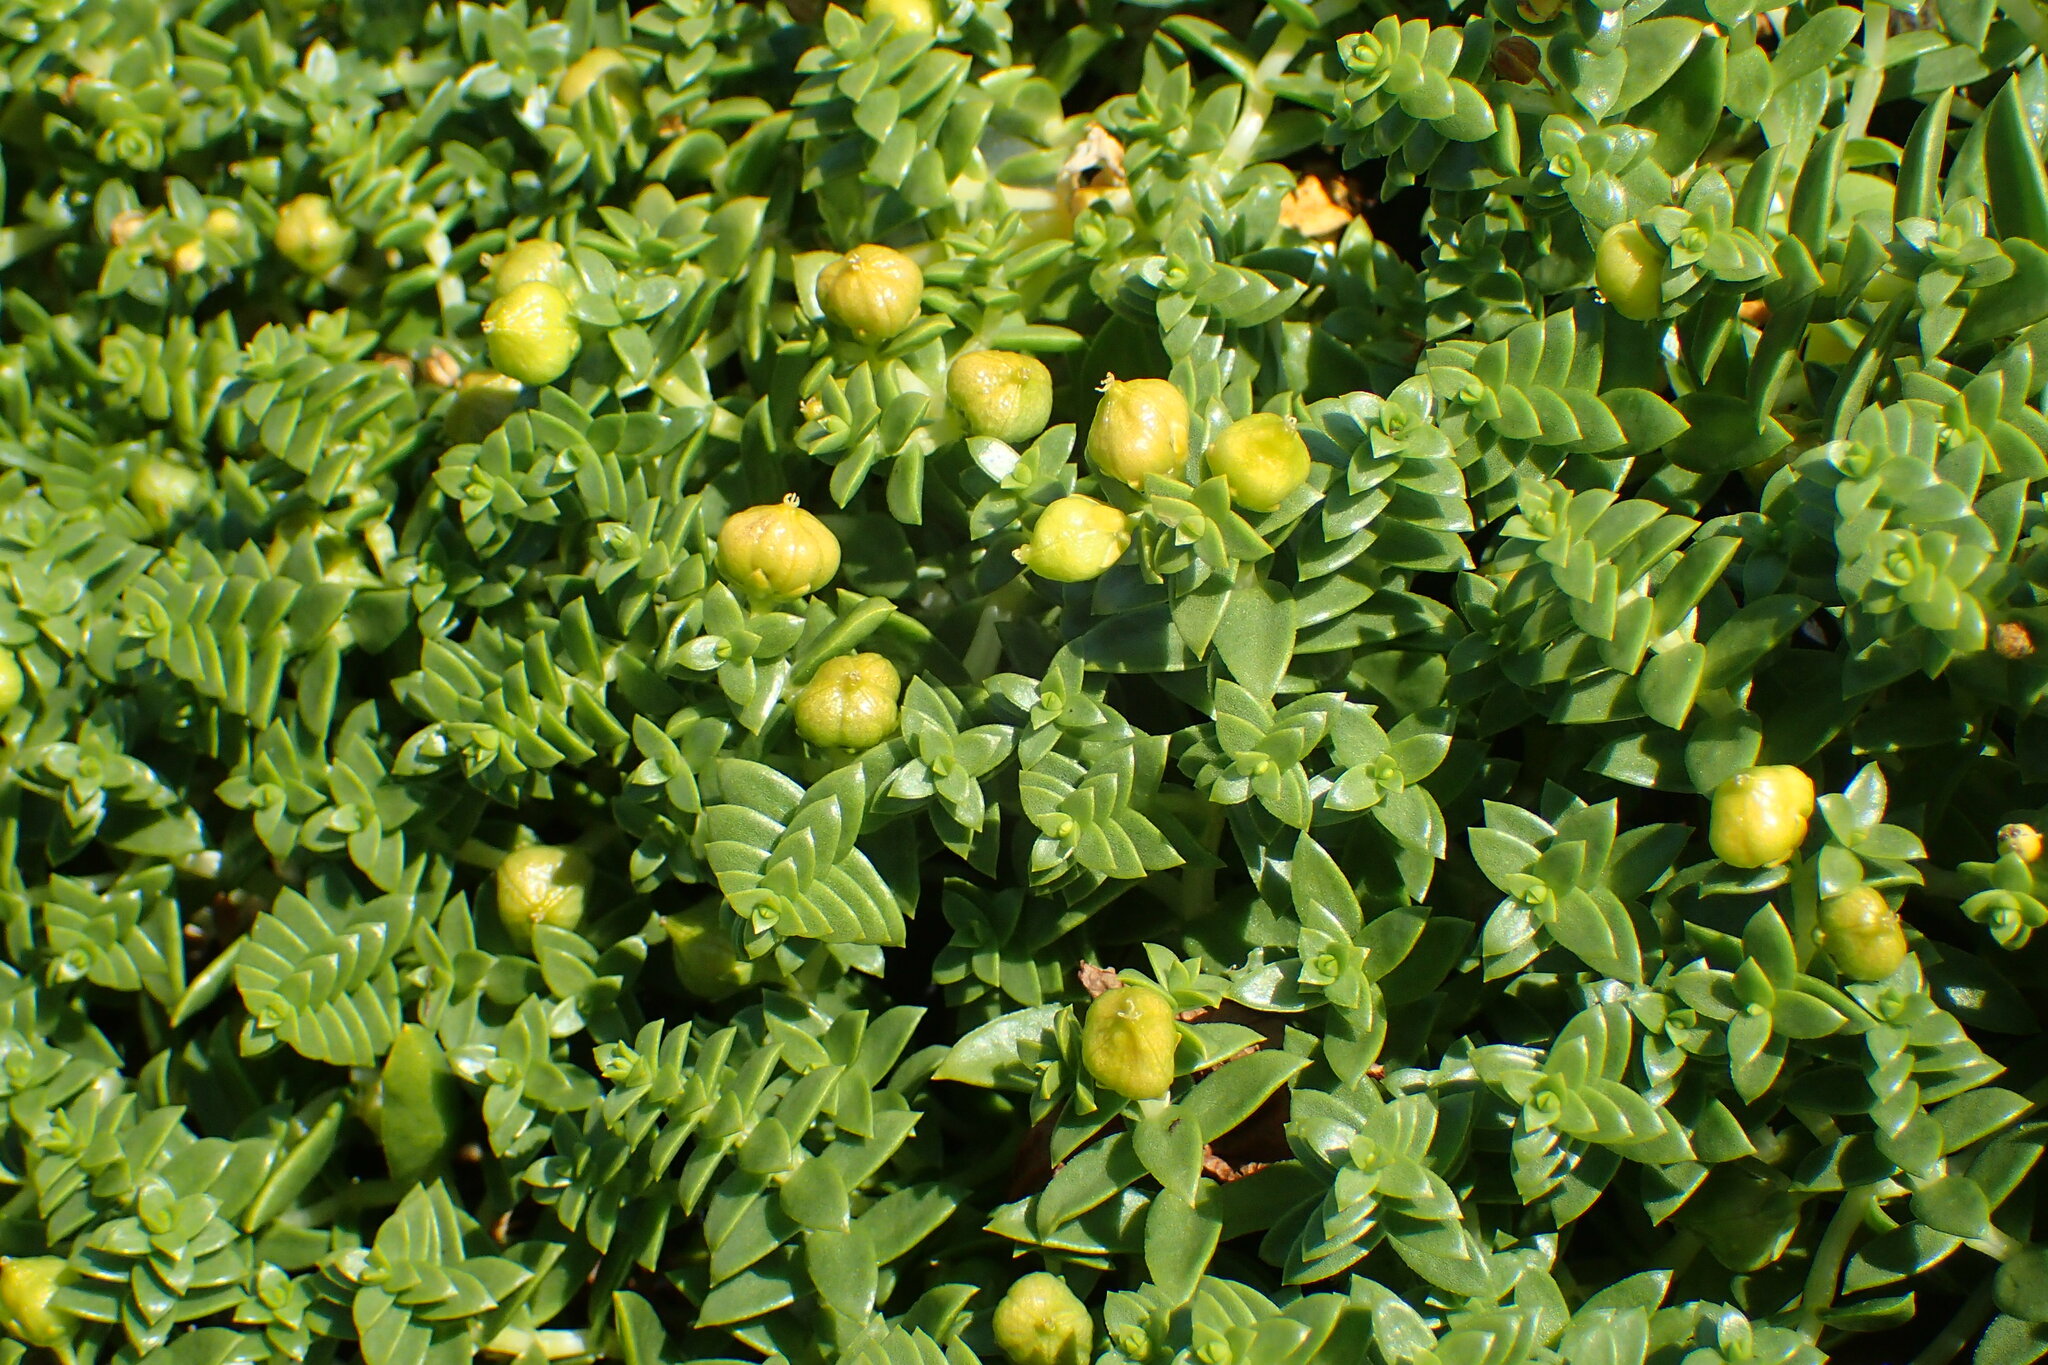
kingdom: Plantae
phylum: Tracheophyta
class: Magnoliopsida
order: Caryophyllales
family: Caryophyllaceae
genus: Honckenya
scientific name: Honckenya peploides
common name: Sea sandwort
